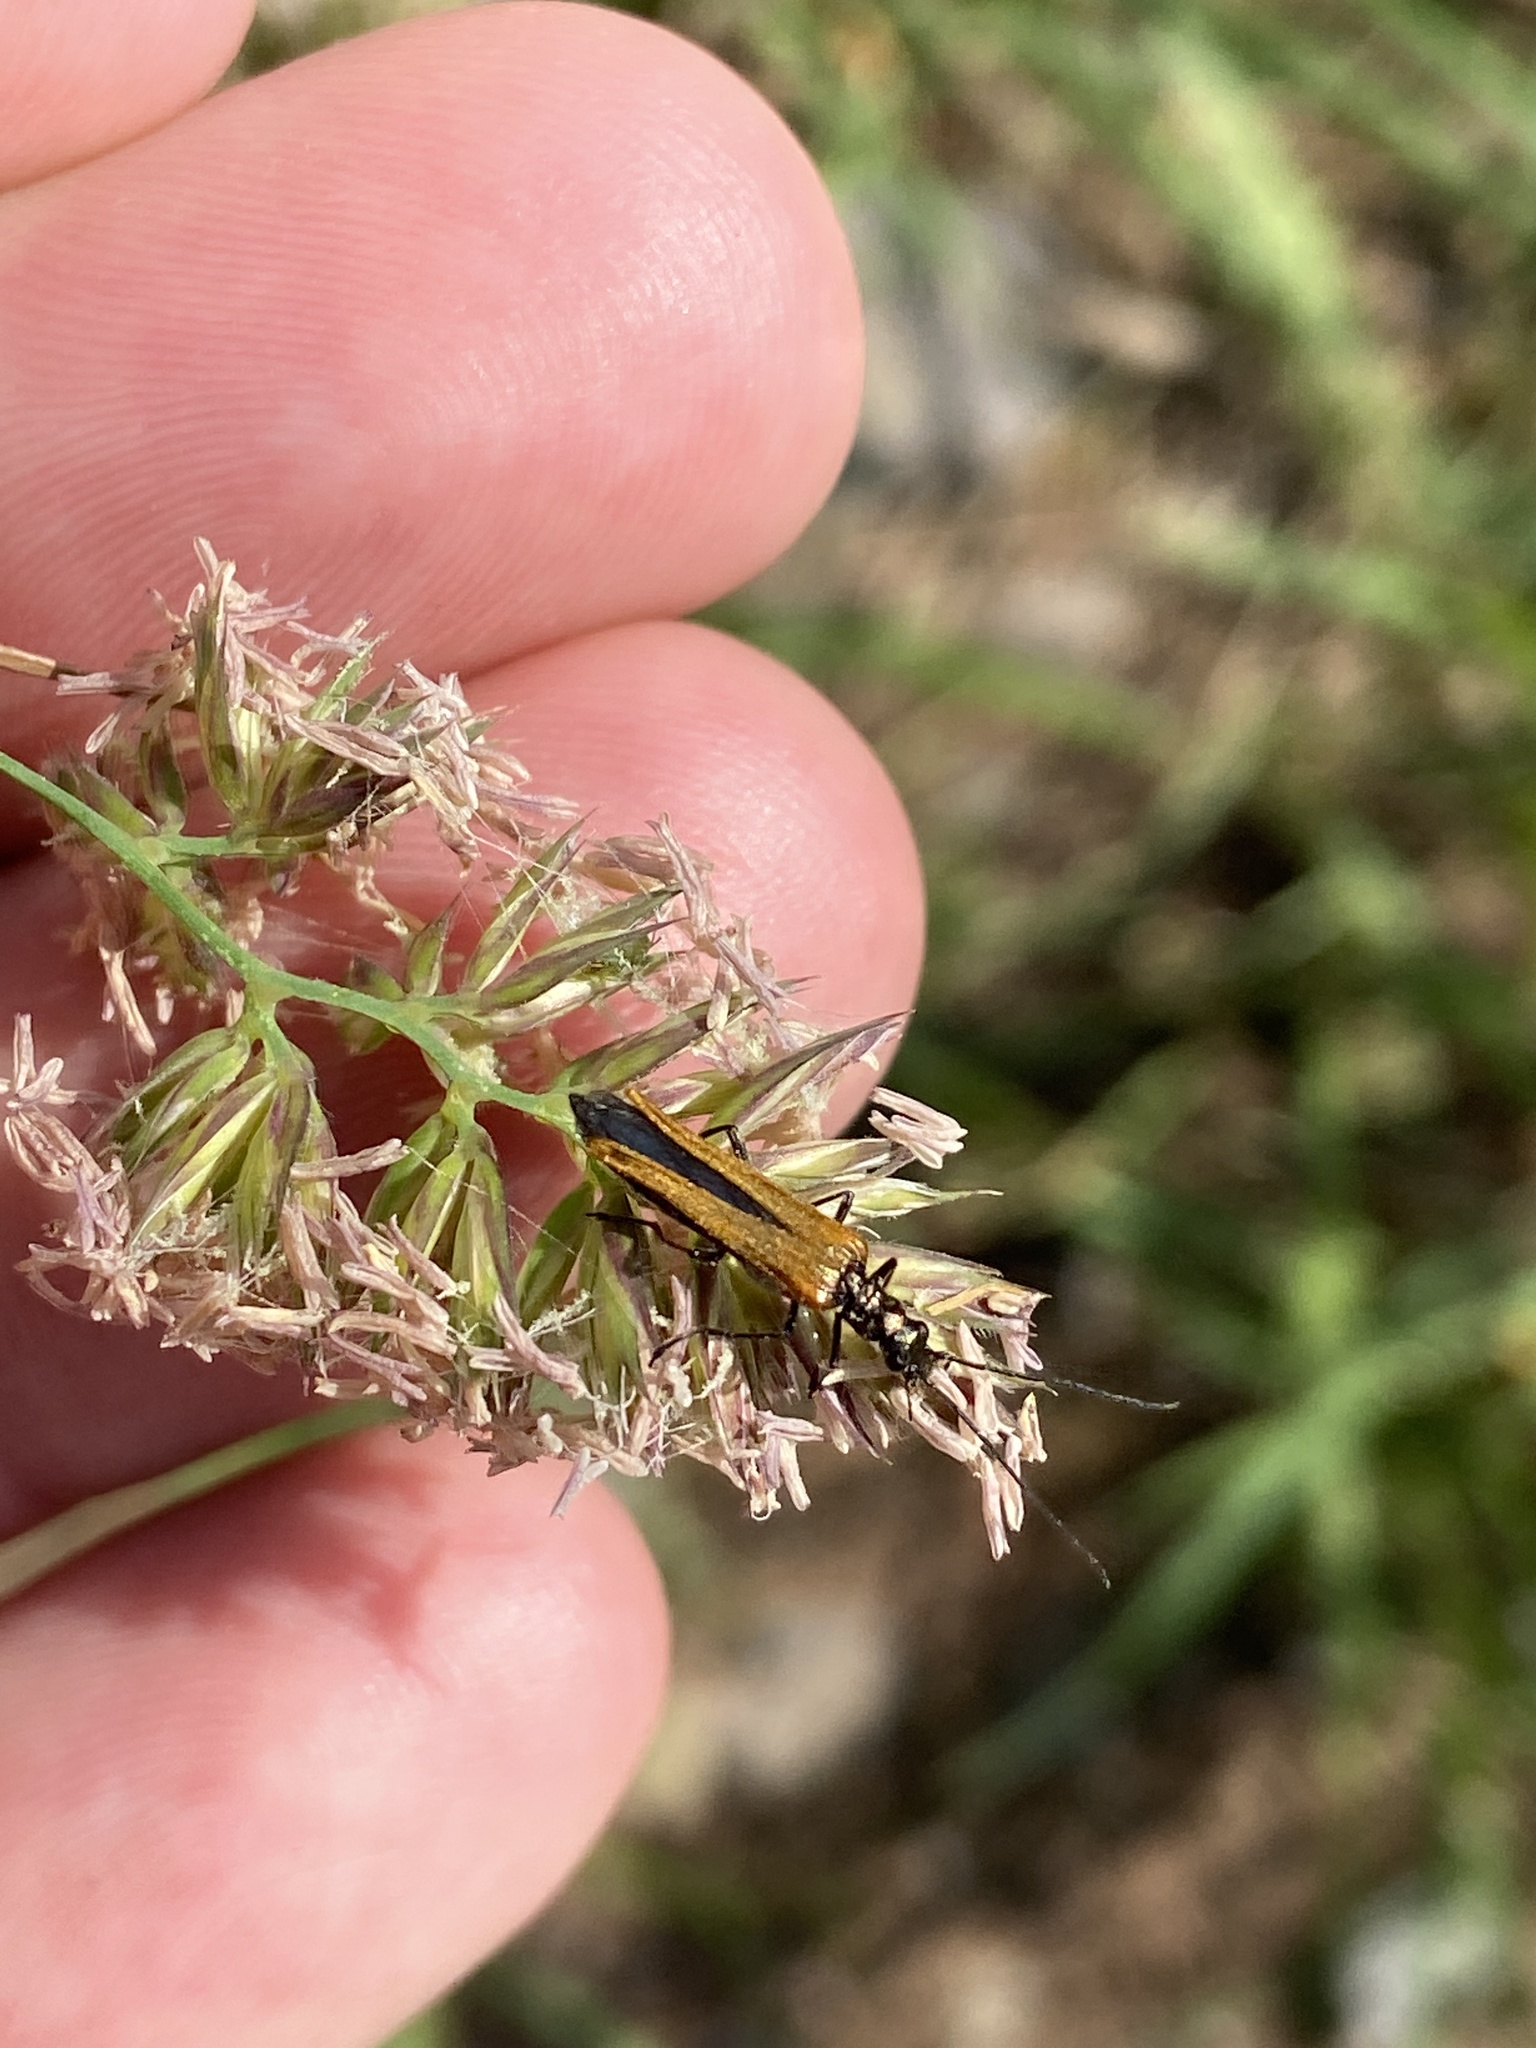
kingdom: Animalia
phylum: Arthropoda
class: Insecta
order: Coleoptera
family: Oedemeridae
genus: Oedemera
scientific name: Oedemera femorata
